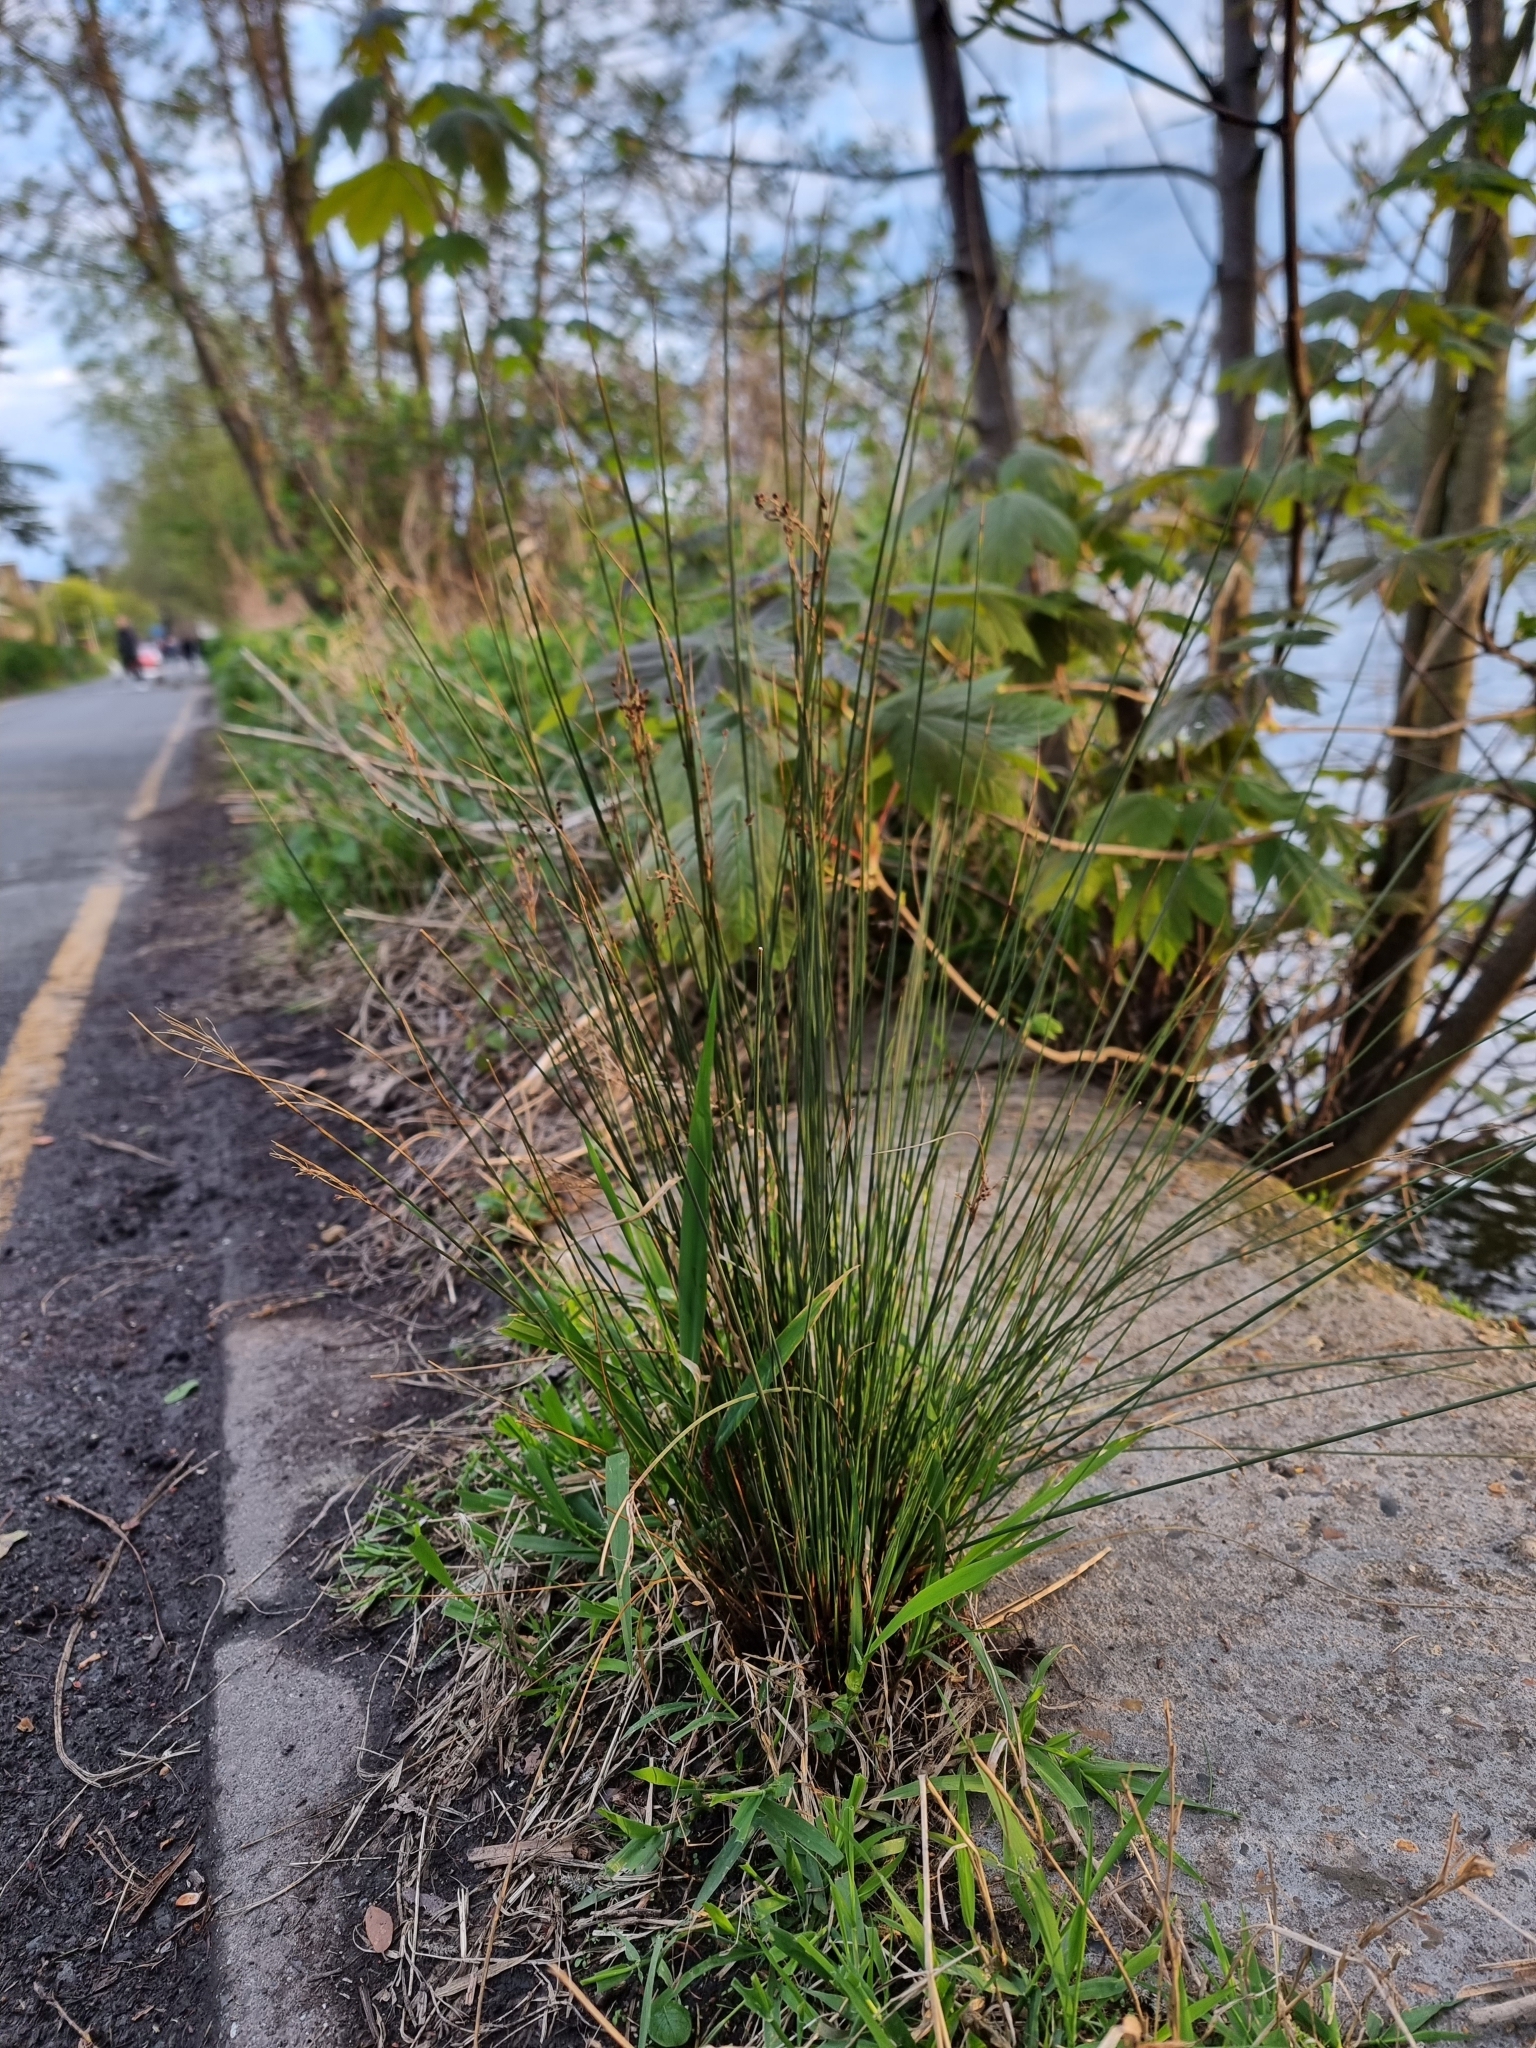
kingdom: Plantae
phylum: Tracheophyta
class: Liliopsida
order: Poales
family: Juncaceae
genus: Juncus
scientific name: Juncus inflexus
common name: Hard rush
